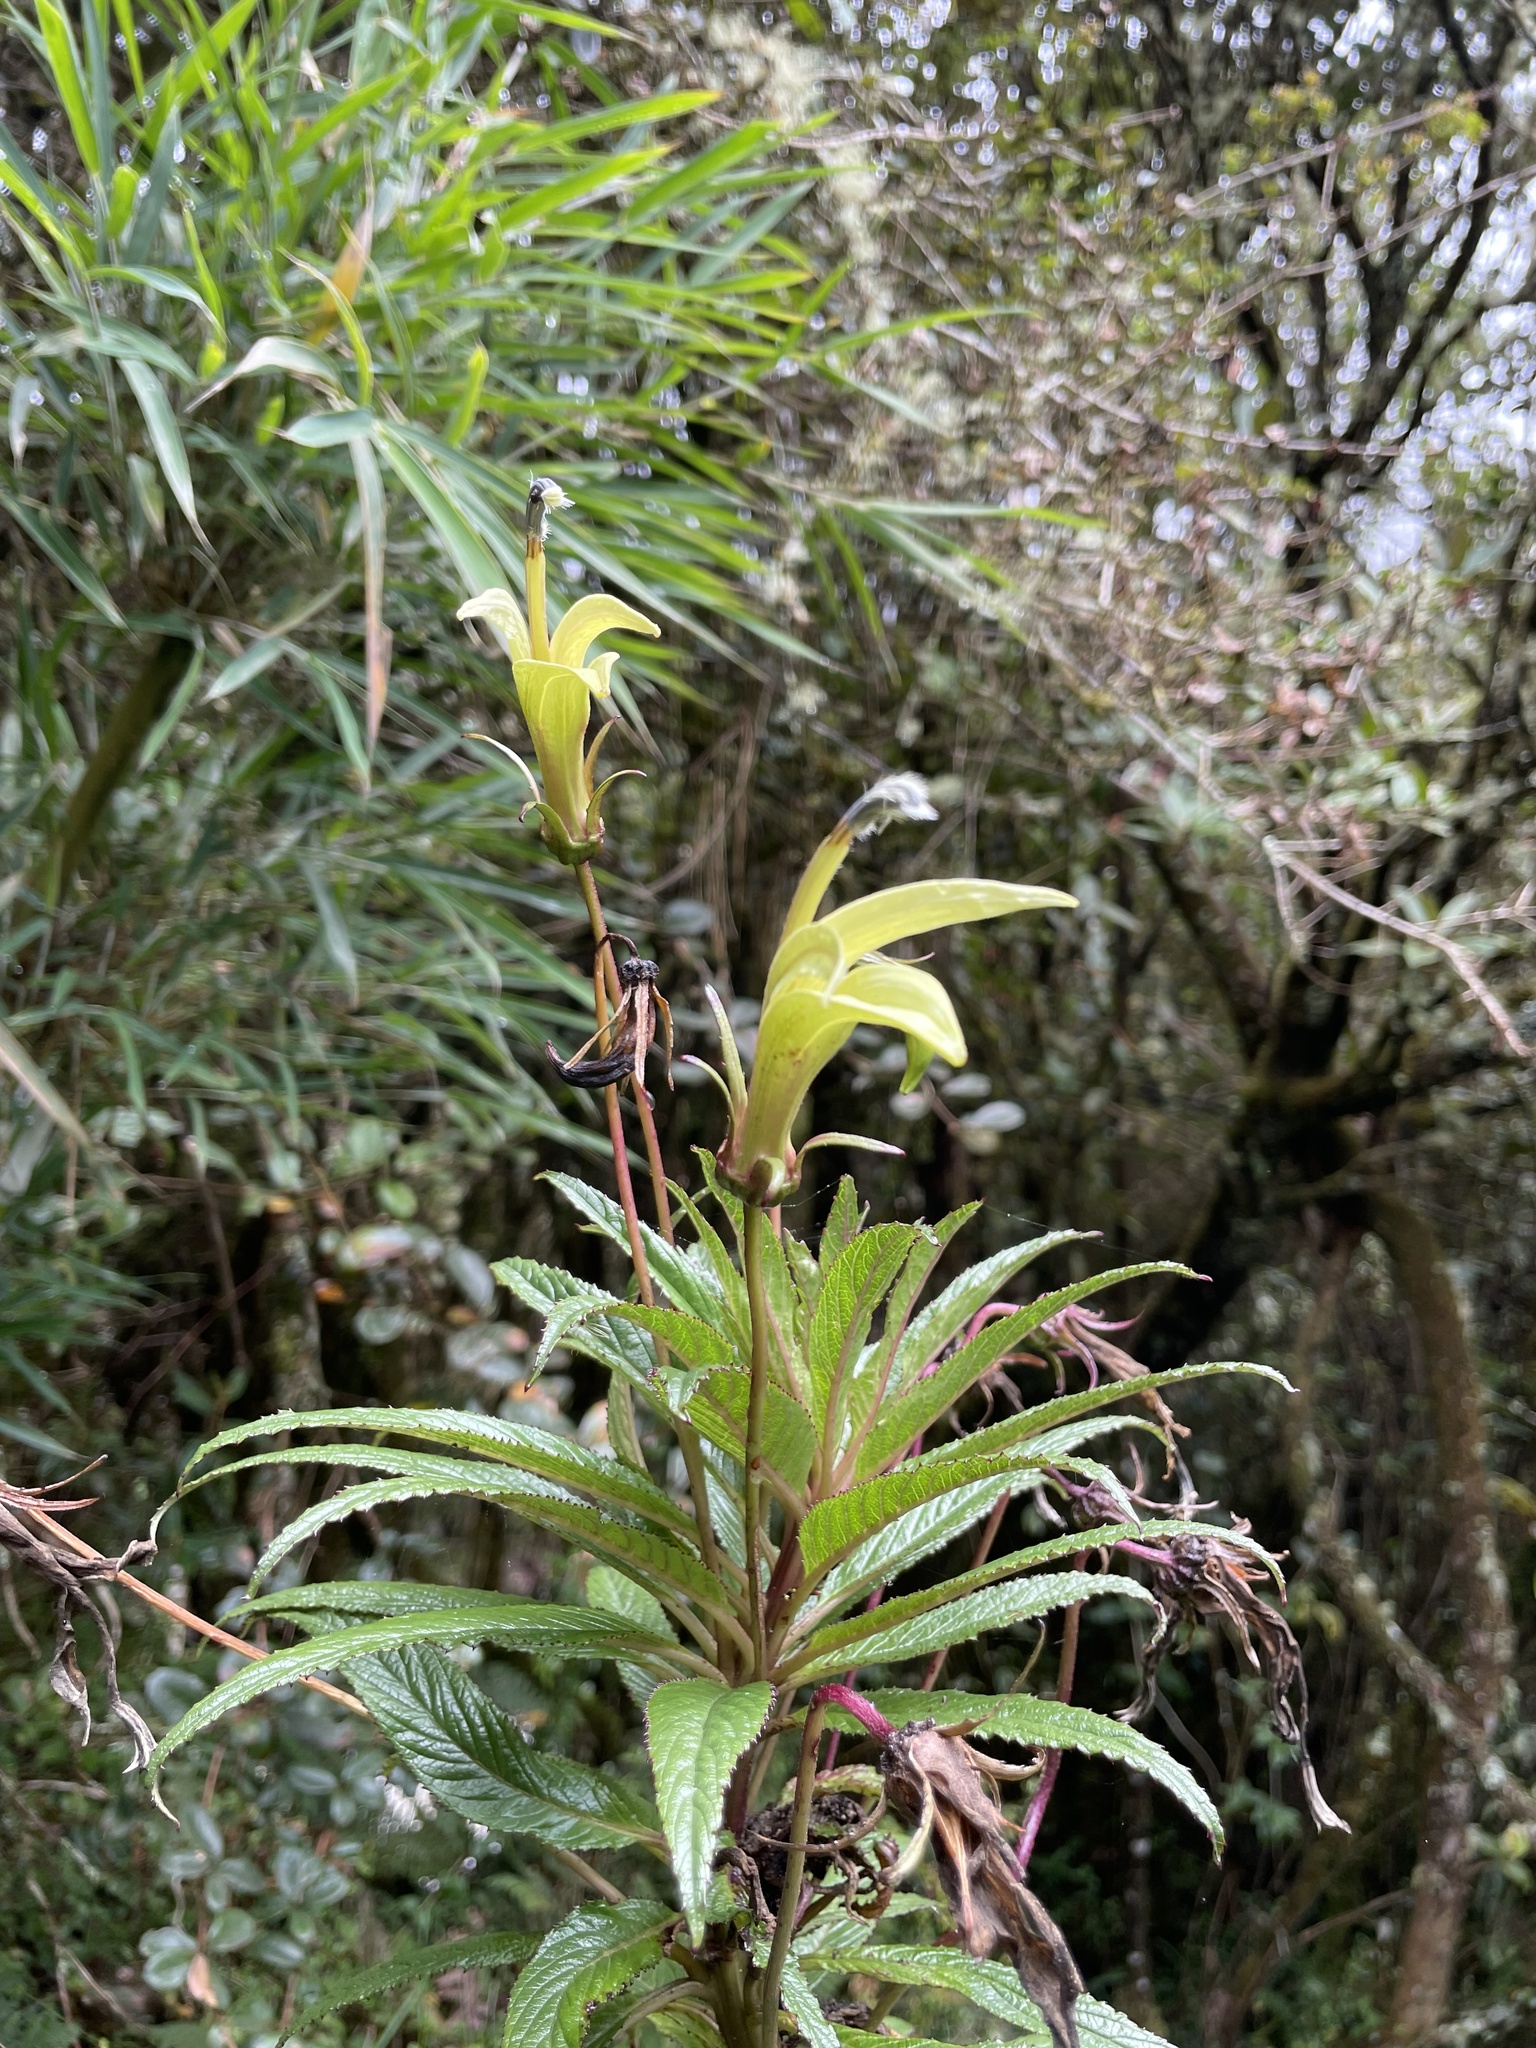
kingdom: Plantae
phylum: Tracheophyta
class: Magnoliopsida
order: Asterales
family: Campanulaceae
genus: Siphocampylus
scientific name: Siphocampylus lucidus
